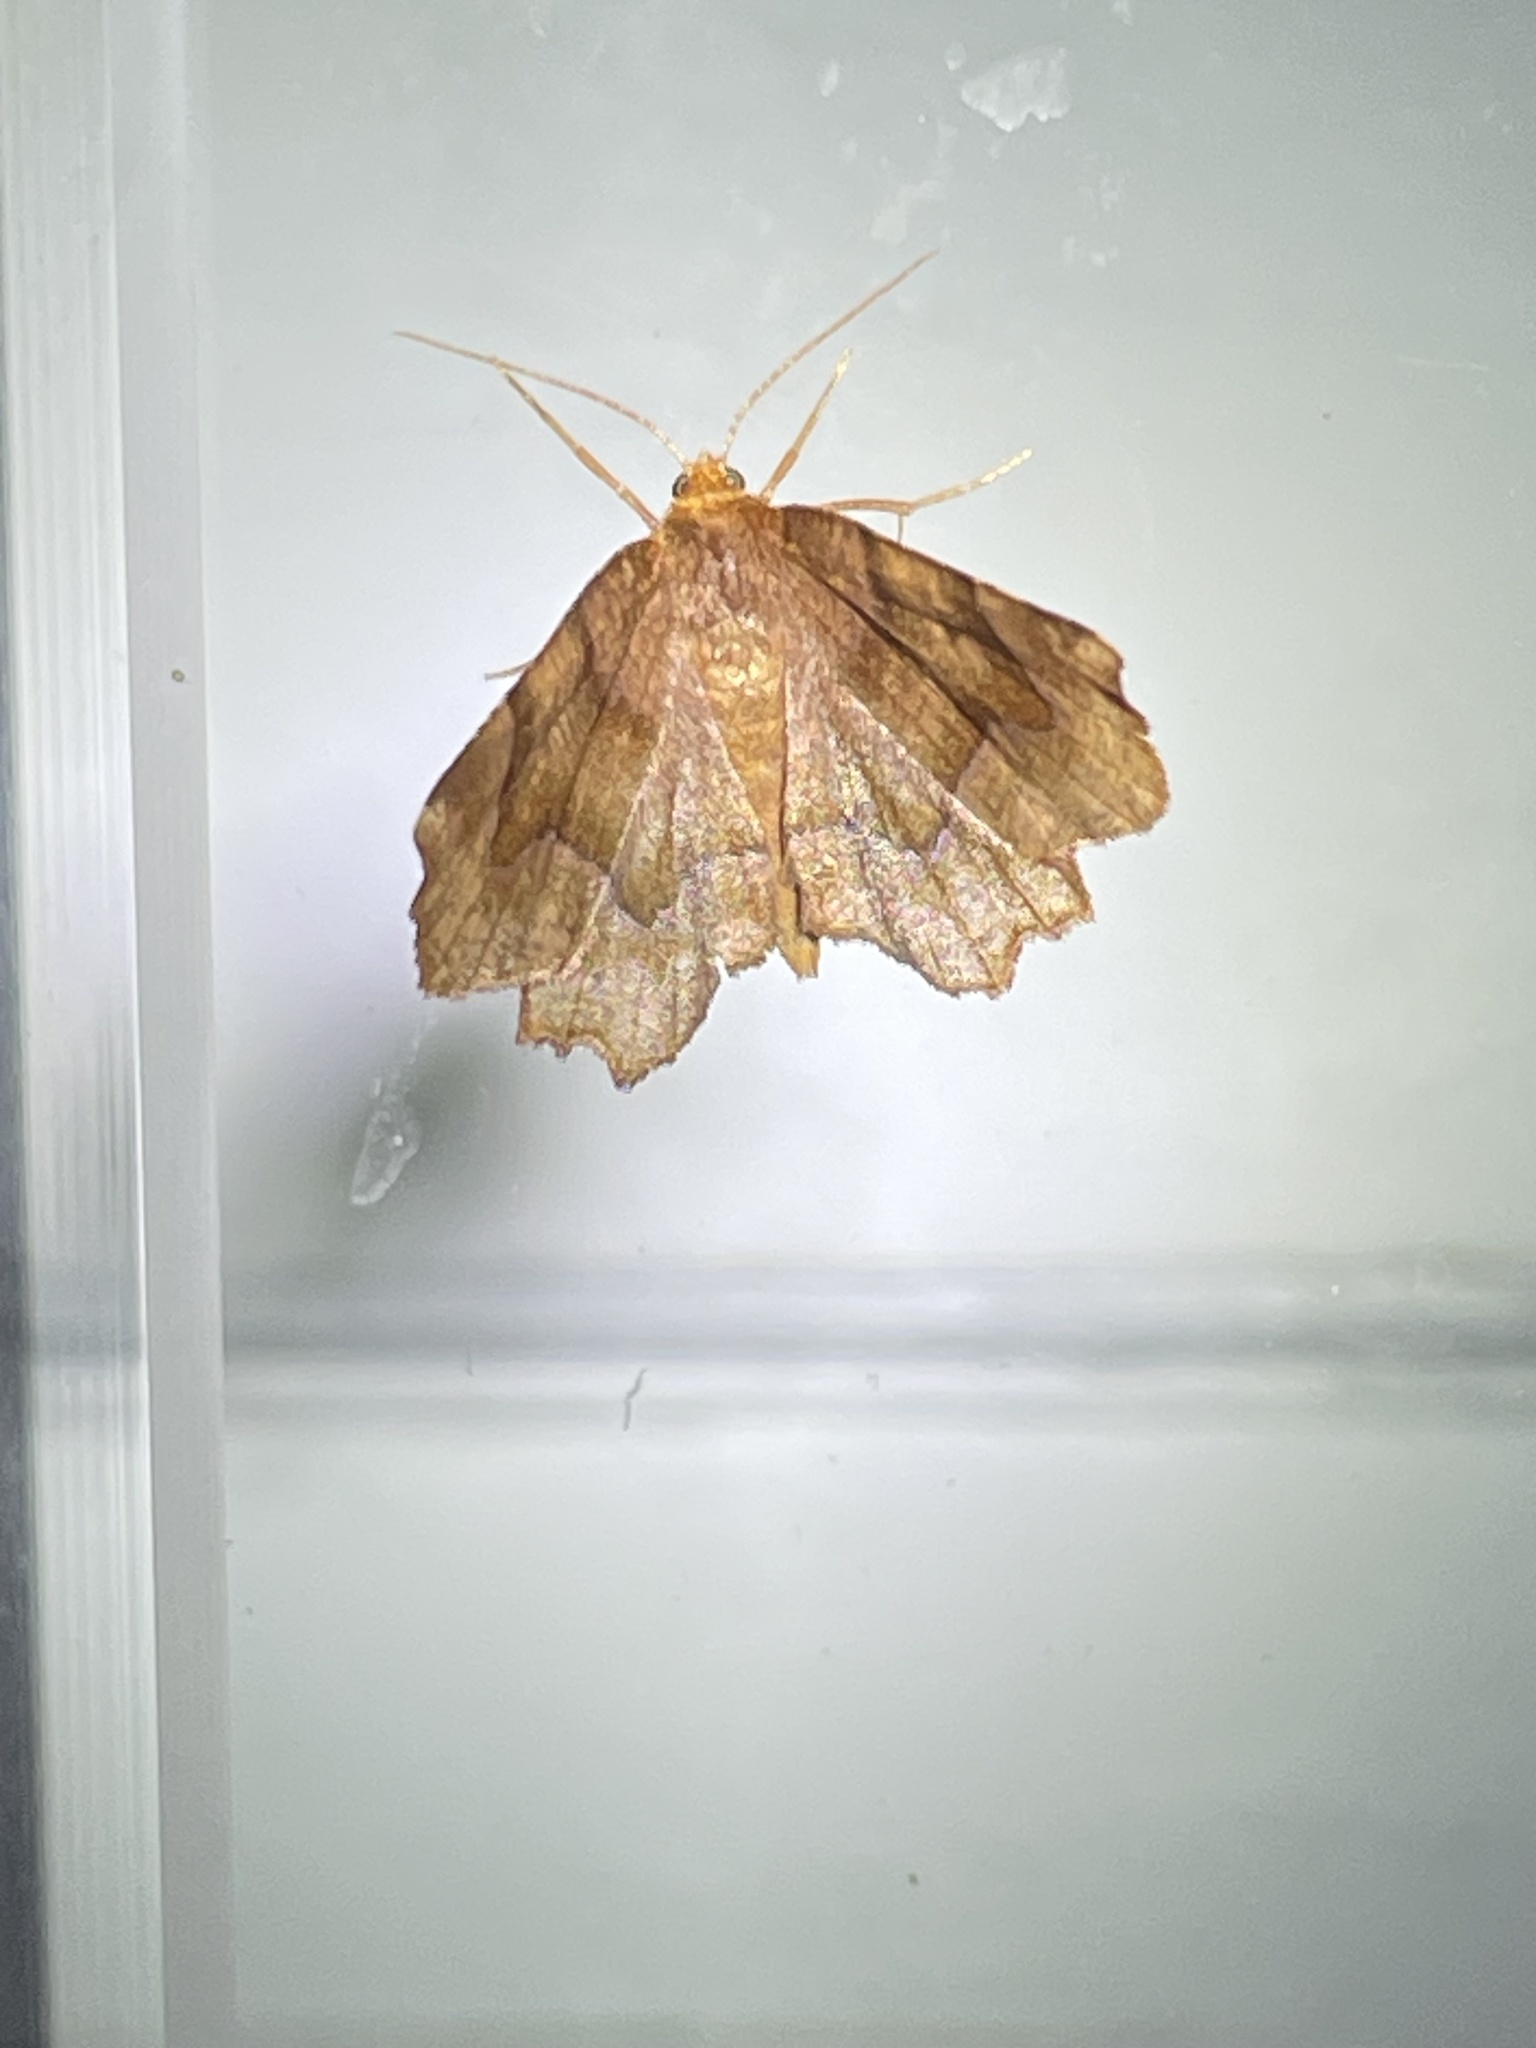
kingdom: Animalia
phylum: Arthropoda
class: Insecta
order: Lepidoptera
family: Geometridae
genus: Metarranthis
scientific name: Metarranthis homuraria
